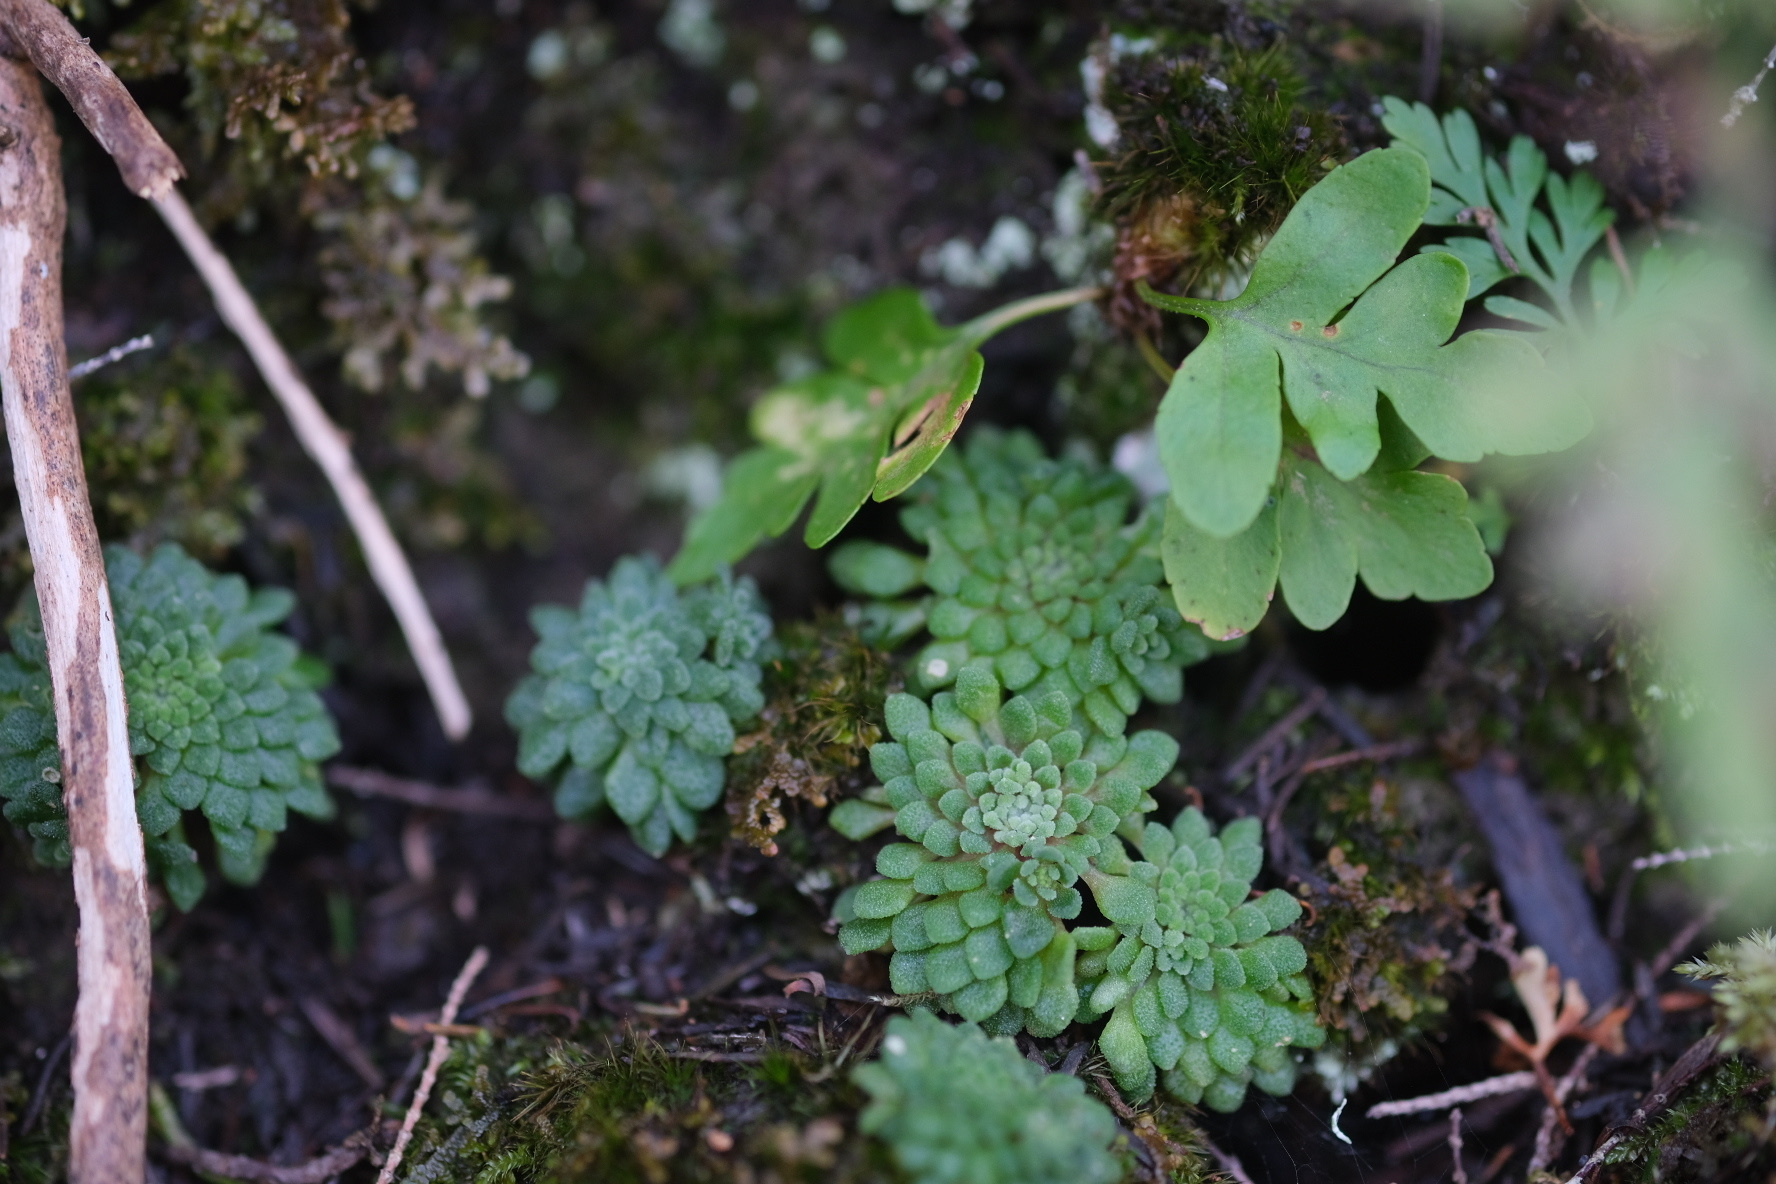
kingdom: Plantae
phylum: Tracheophyta
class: Magnoliopsida
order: Saxifragales
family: Crassulaceae
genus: Monanthes
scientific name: Monanthes brachycaulos
